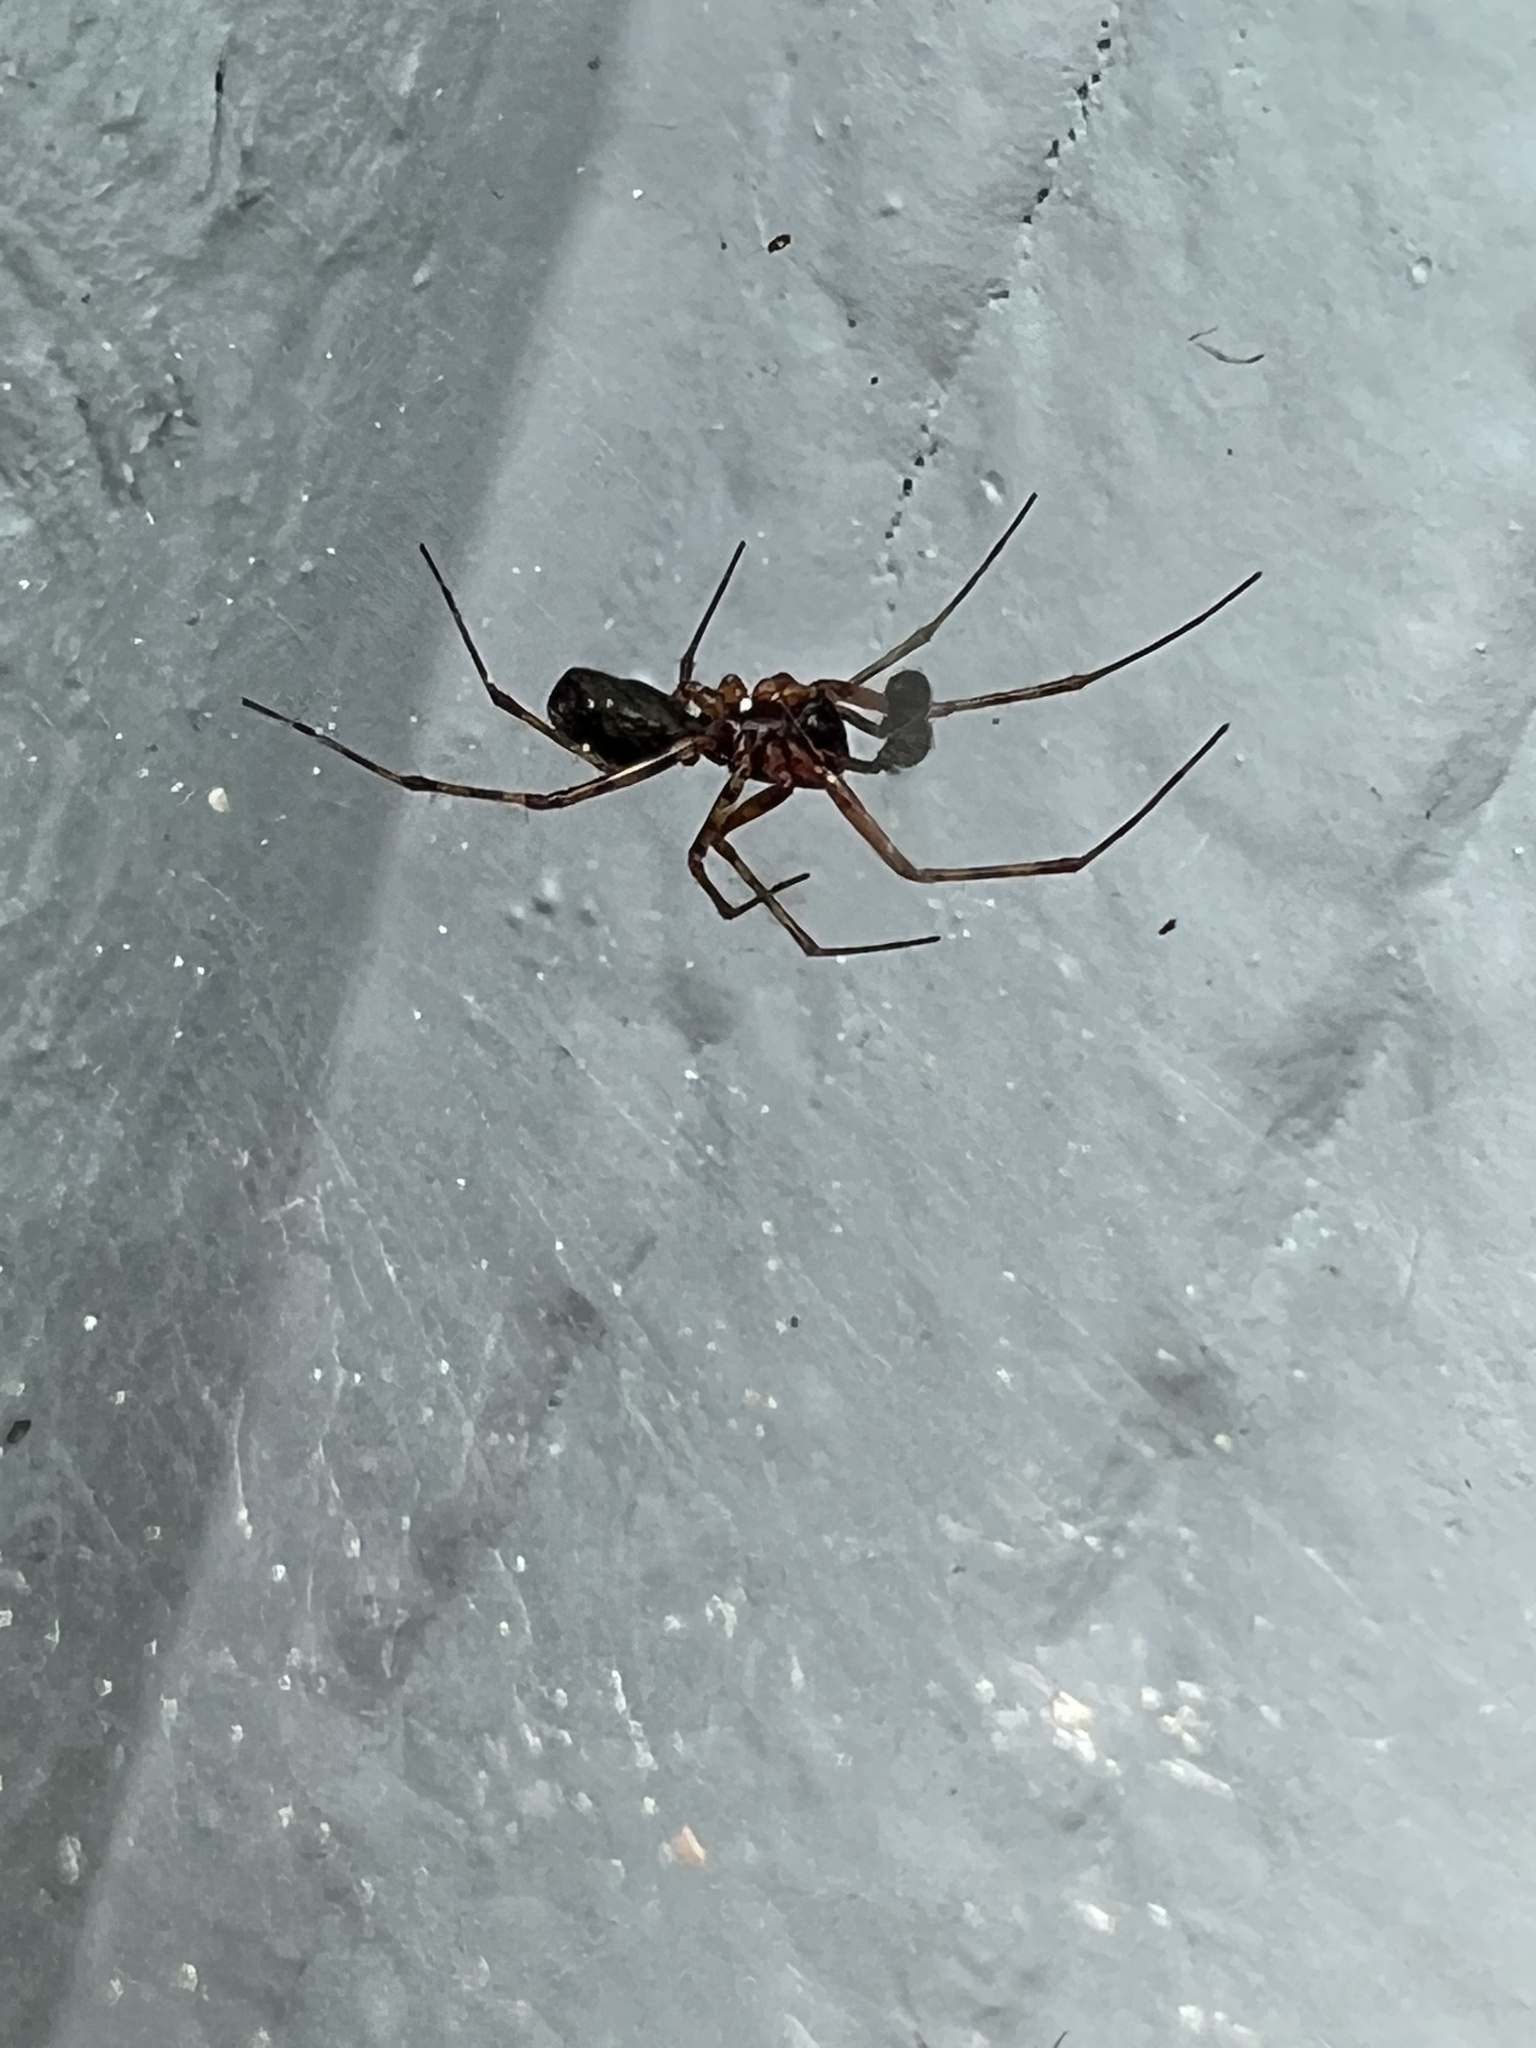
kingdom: Animalia
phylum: Arthropoda
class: Arachnida
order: Araneae
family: Linyphiidae
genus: Neriene
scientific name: Neriene digna
